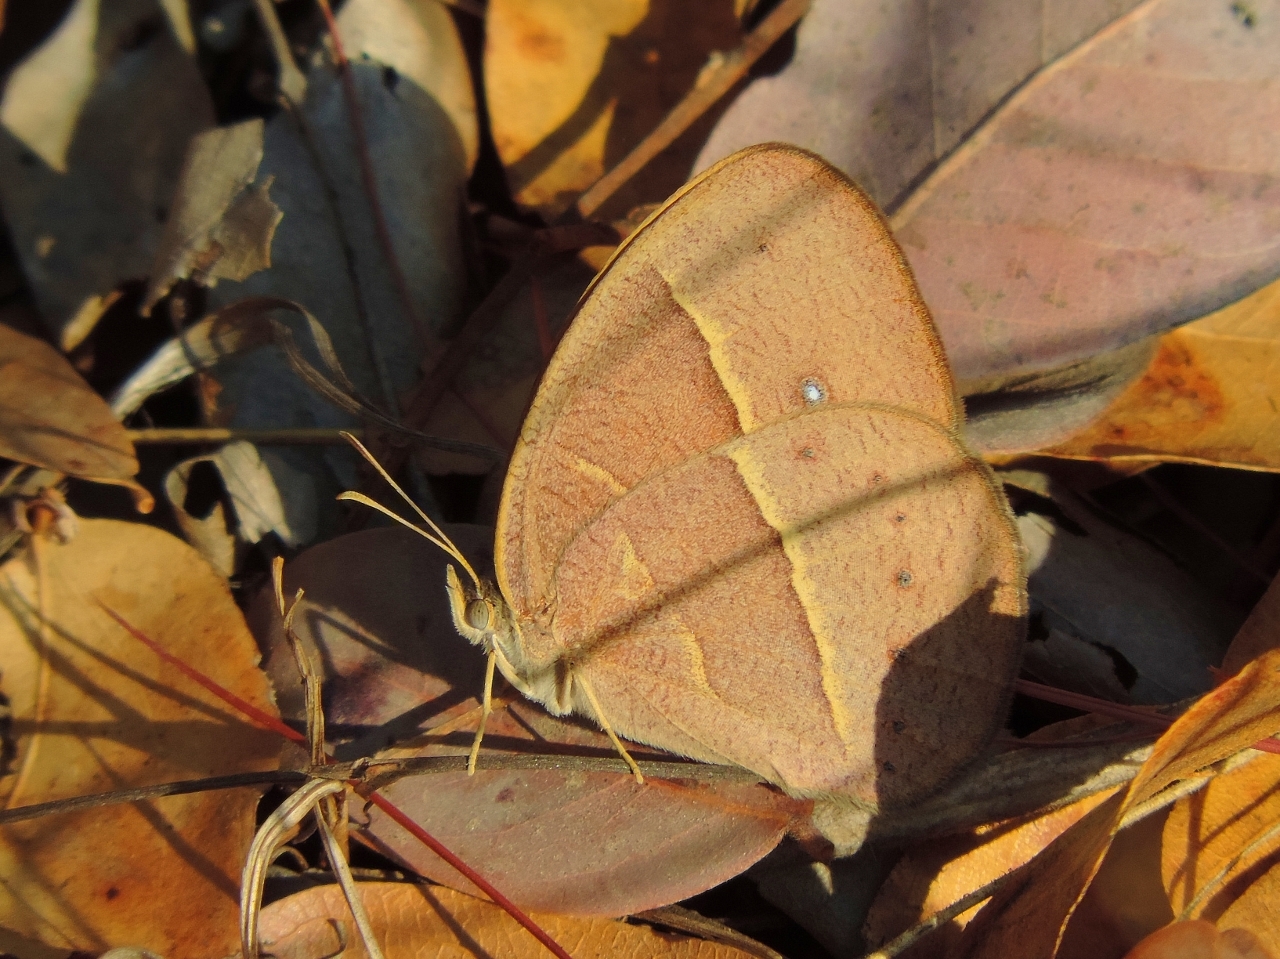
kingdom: Animalia
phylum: Arthropoda
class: Insecta
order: Lepidoptera
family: Nymphalidae
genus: Brakefieldia
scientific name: Brakefieldia simonsii
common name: Pale patroller
